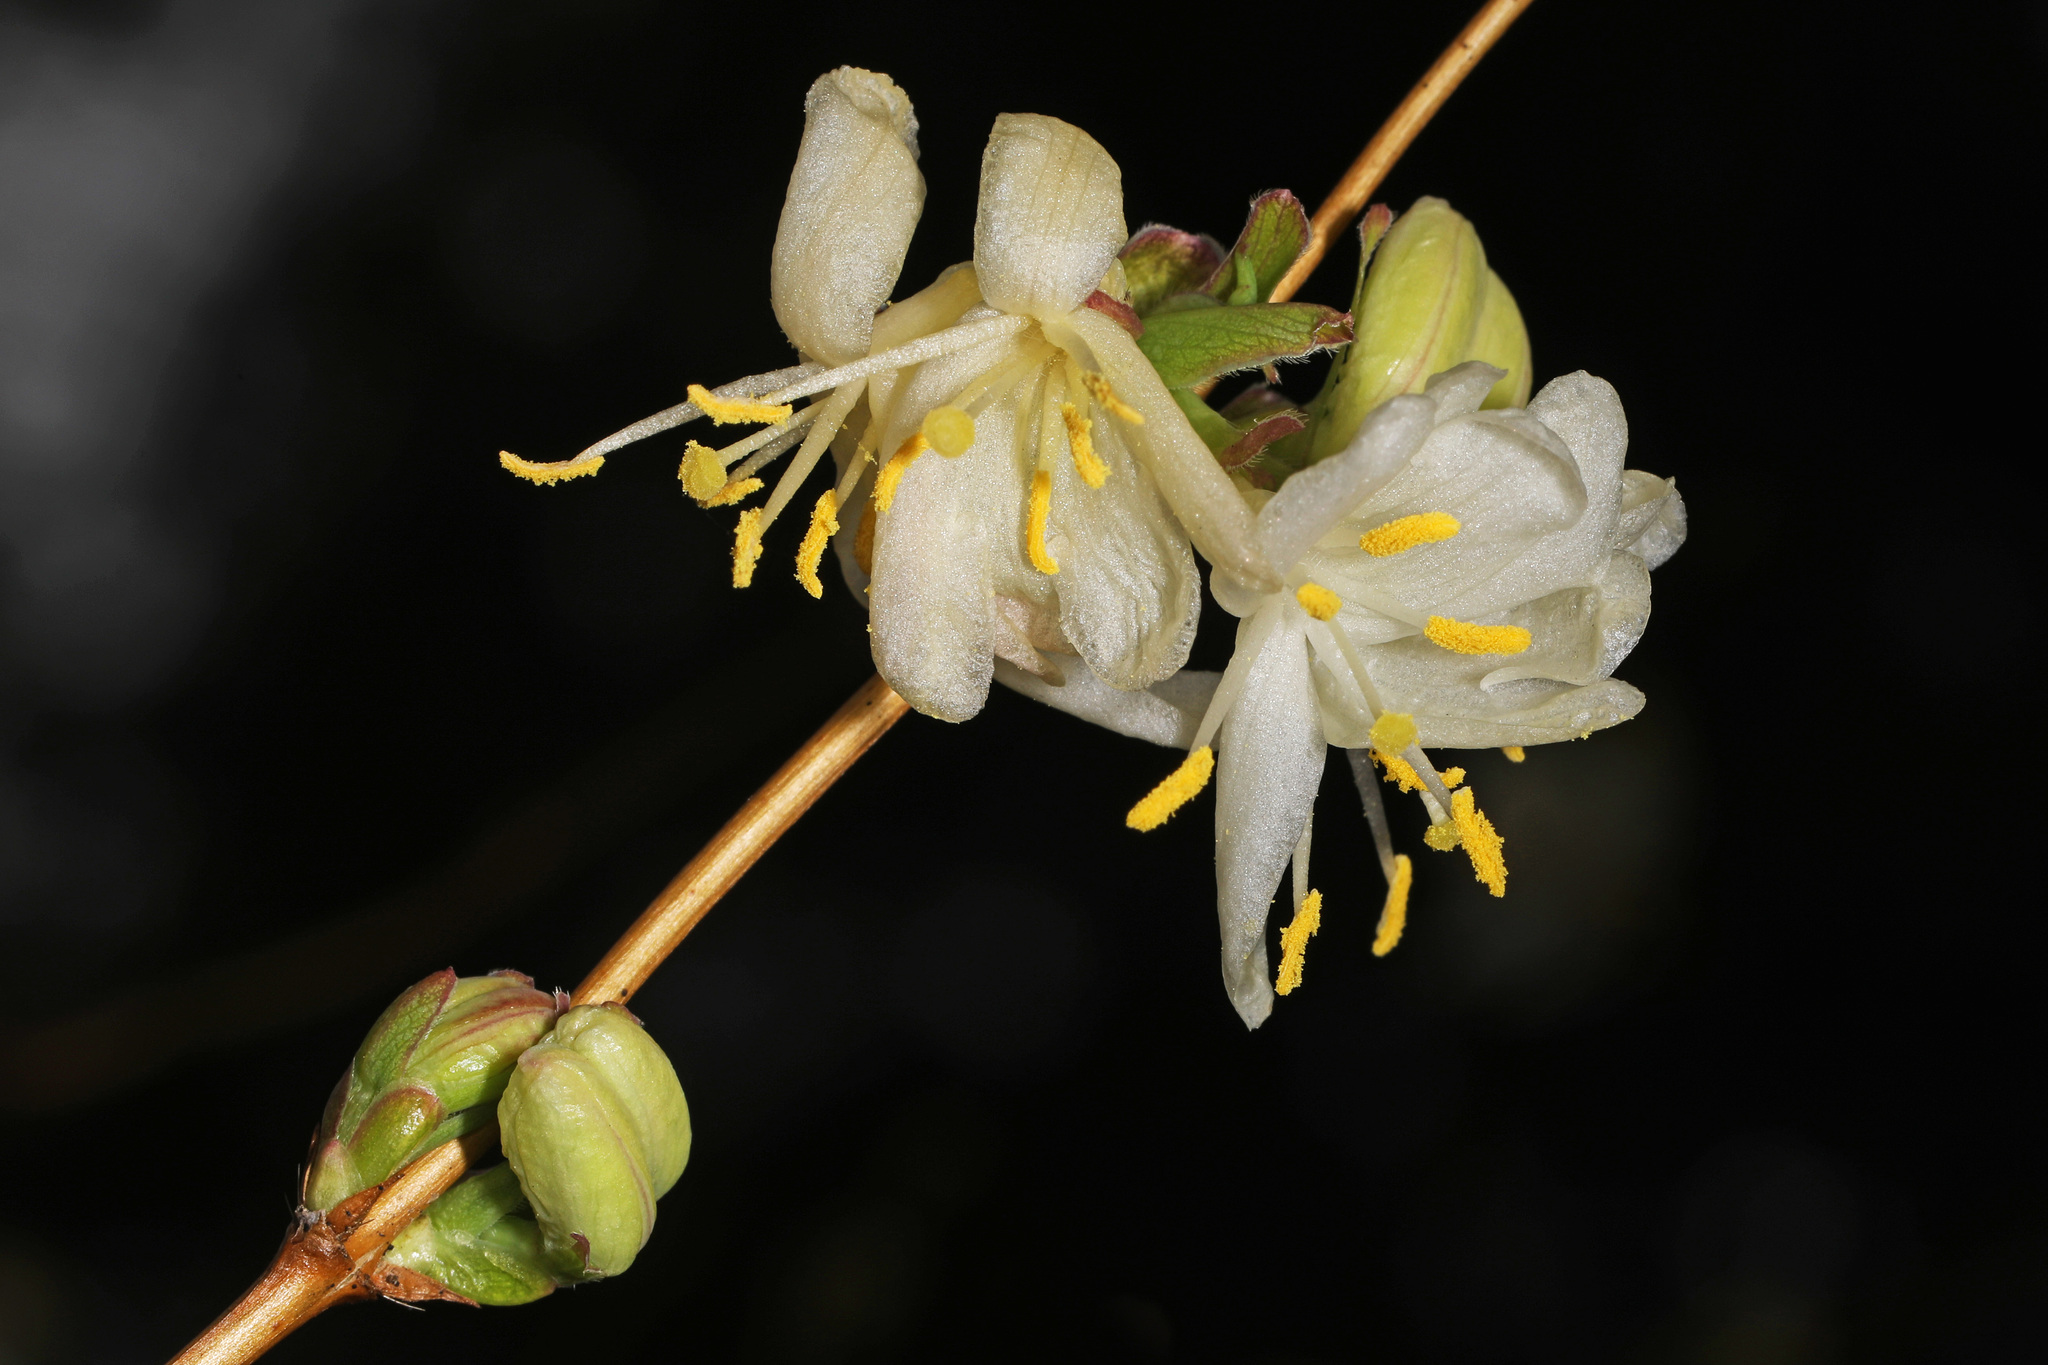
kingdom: Plantae
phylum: Tracheophyta
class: Magnoliopsida
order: Dipsacales
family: Caprifoliaceae
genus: Lonicera
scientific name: Lonicera fragrantissima
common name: Fragrant honeysuckle
